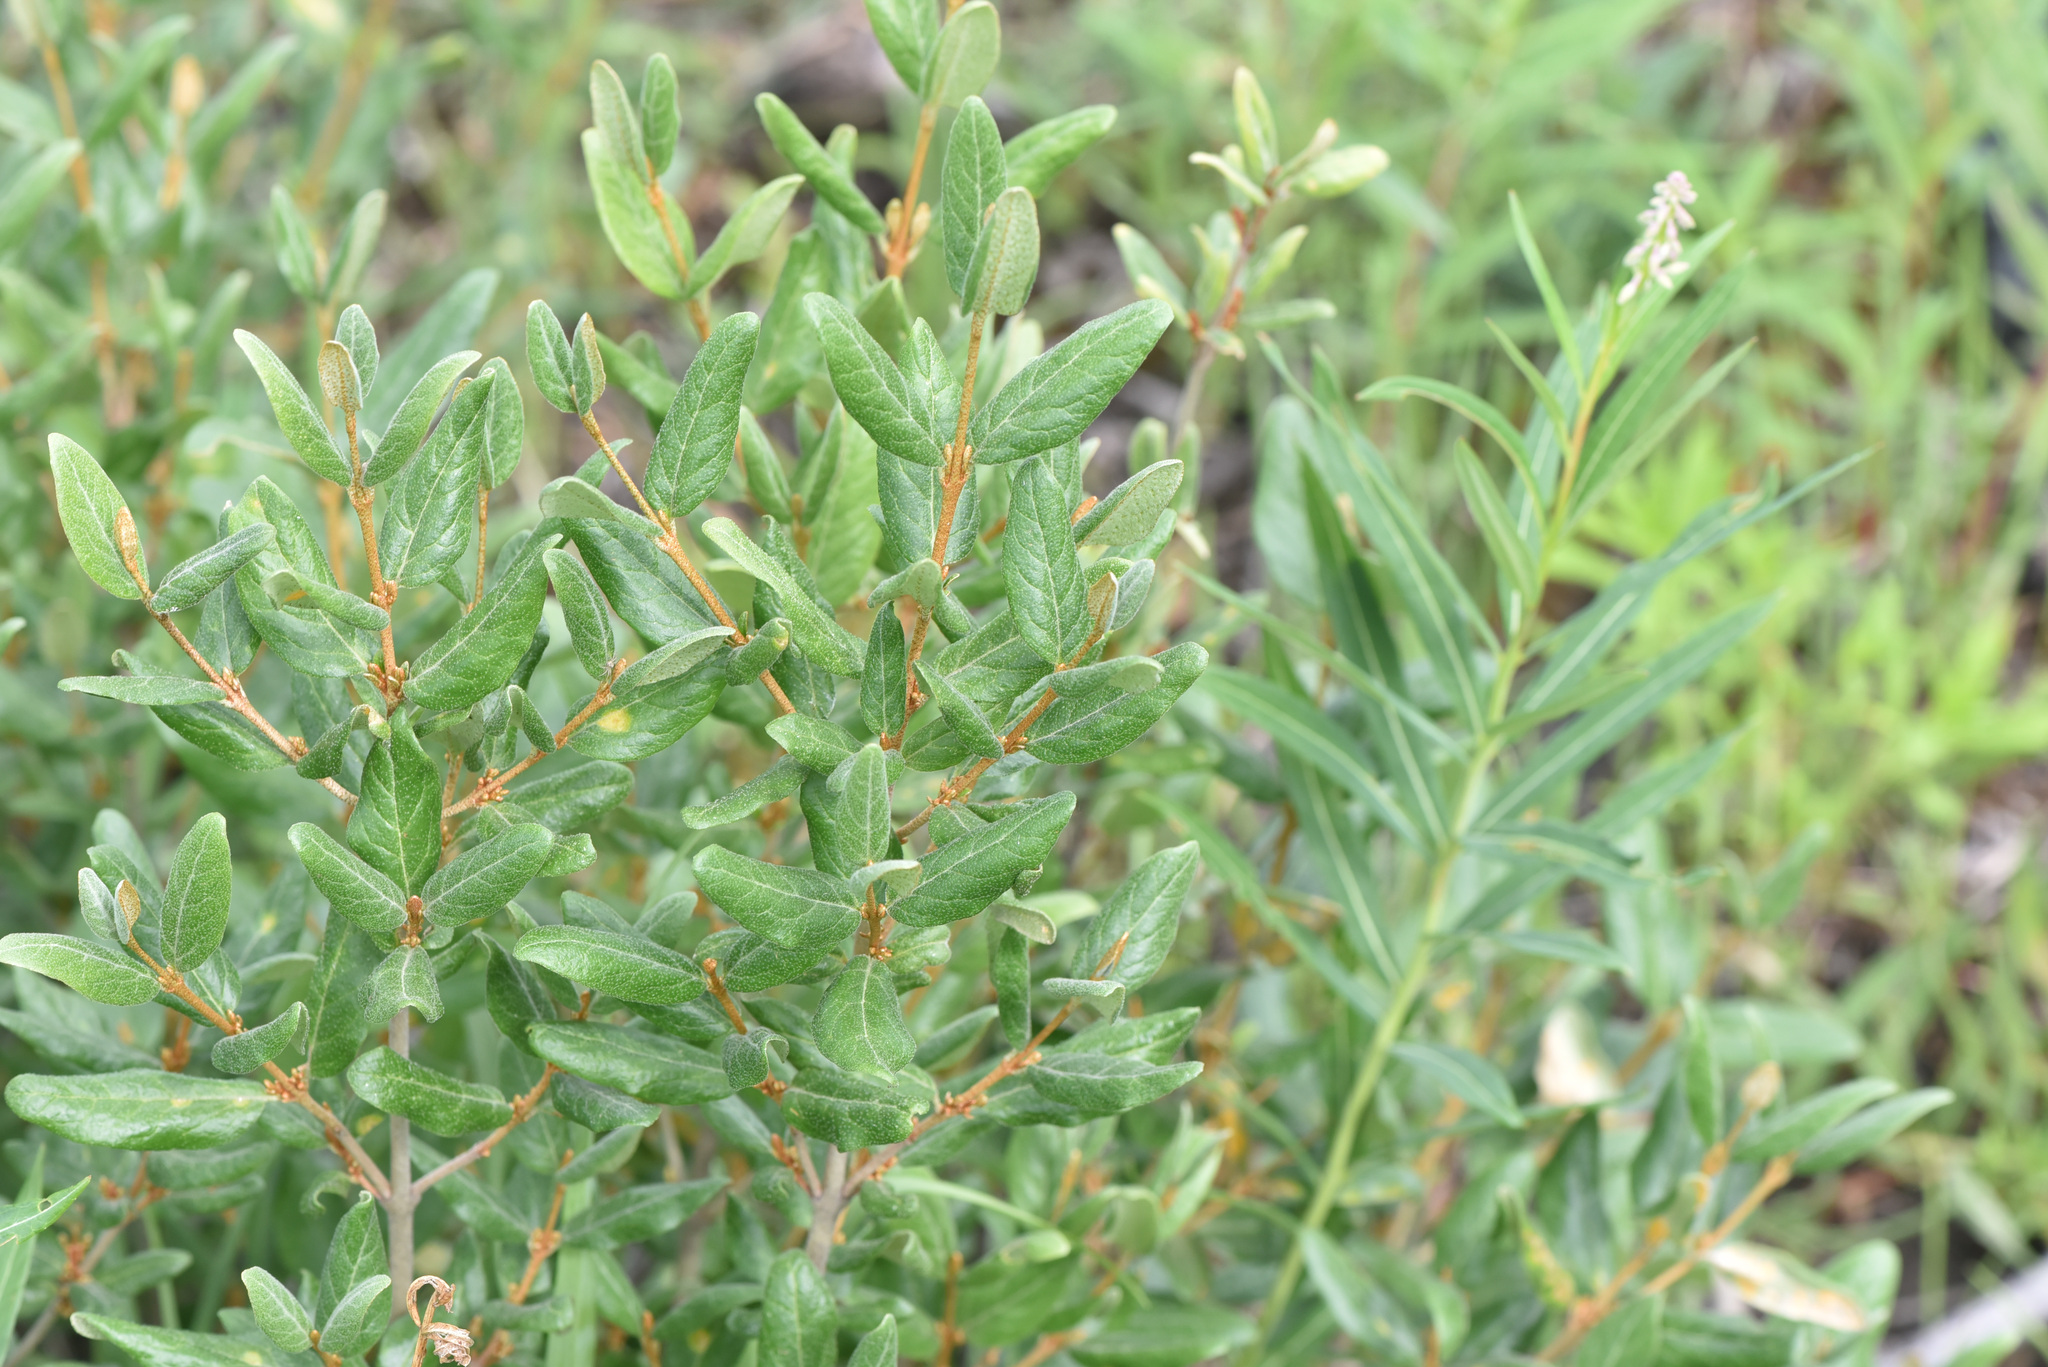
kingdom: Plantae
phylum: Tracheophyta
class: Magnoliopsida
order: Rosales
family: Elaeagnaceae
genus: Shepherdia
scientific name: Shepherdia canadensis
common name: Soapberry
